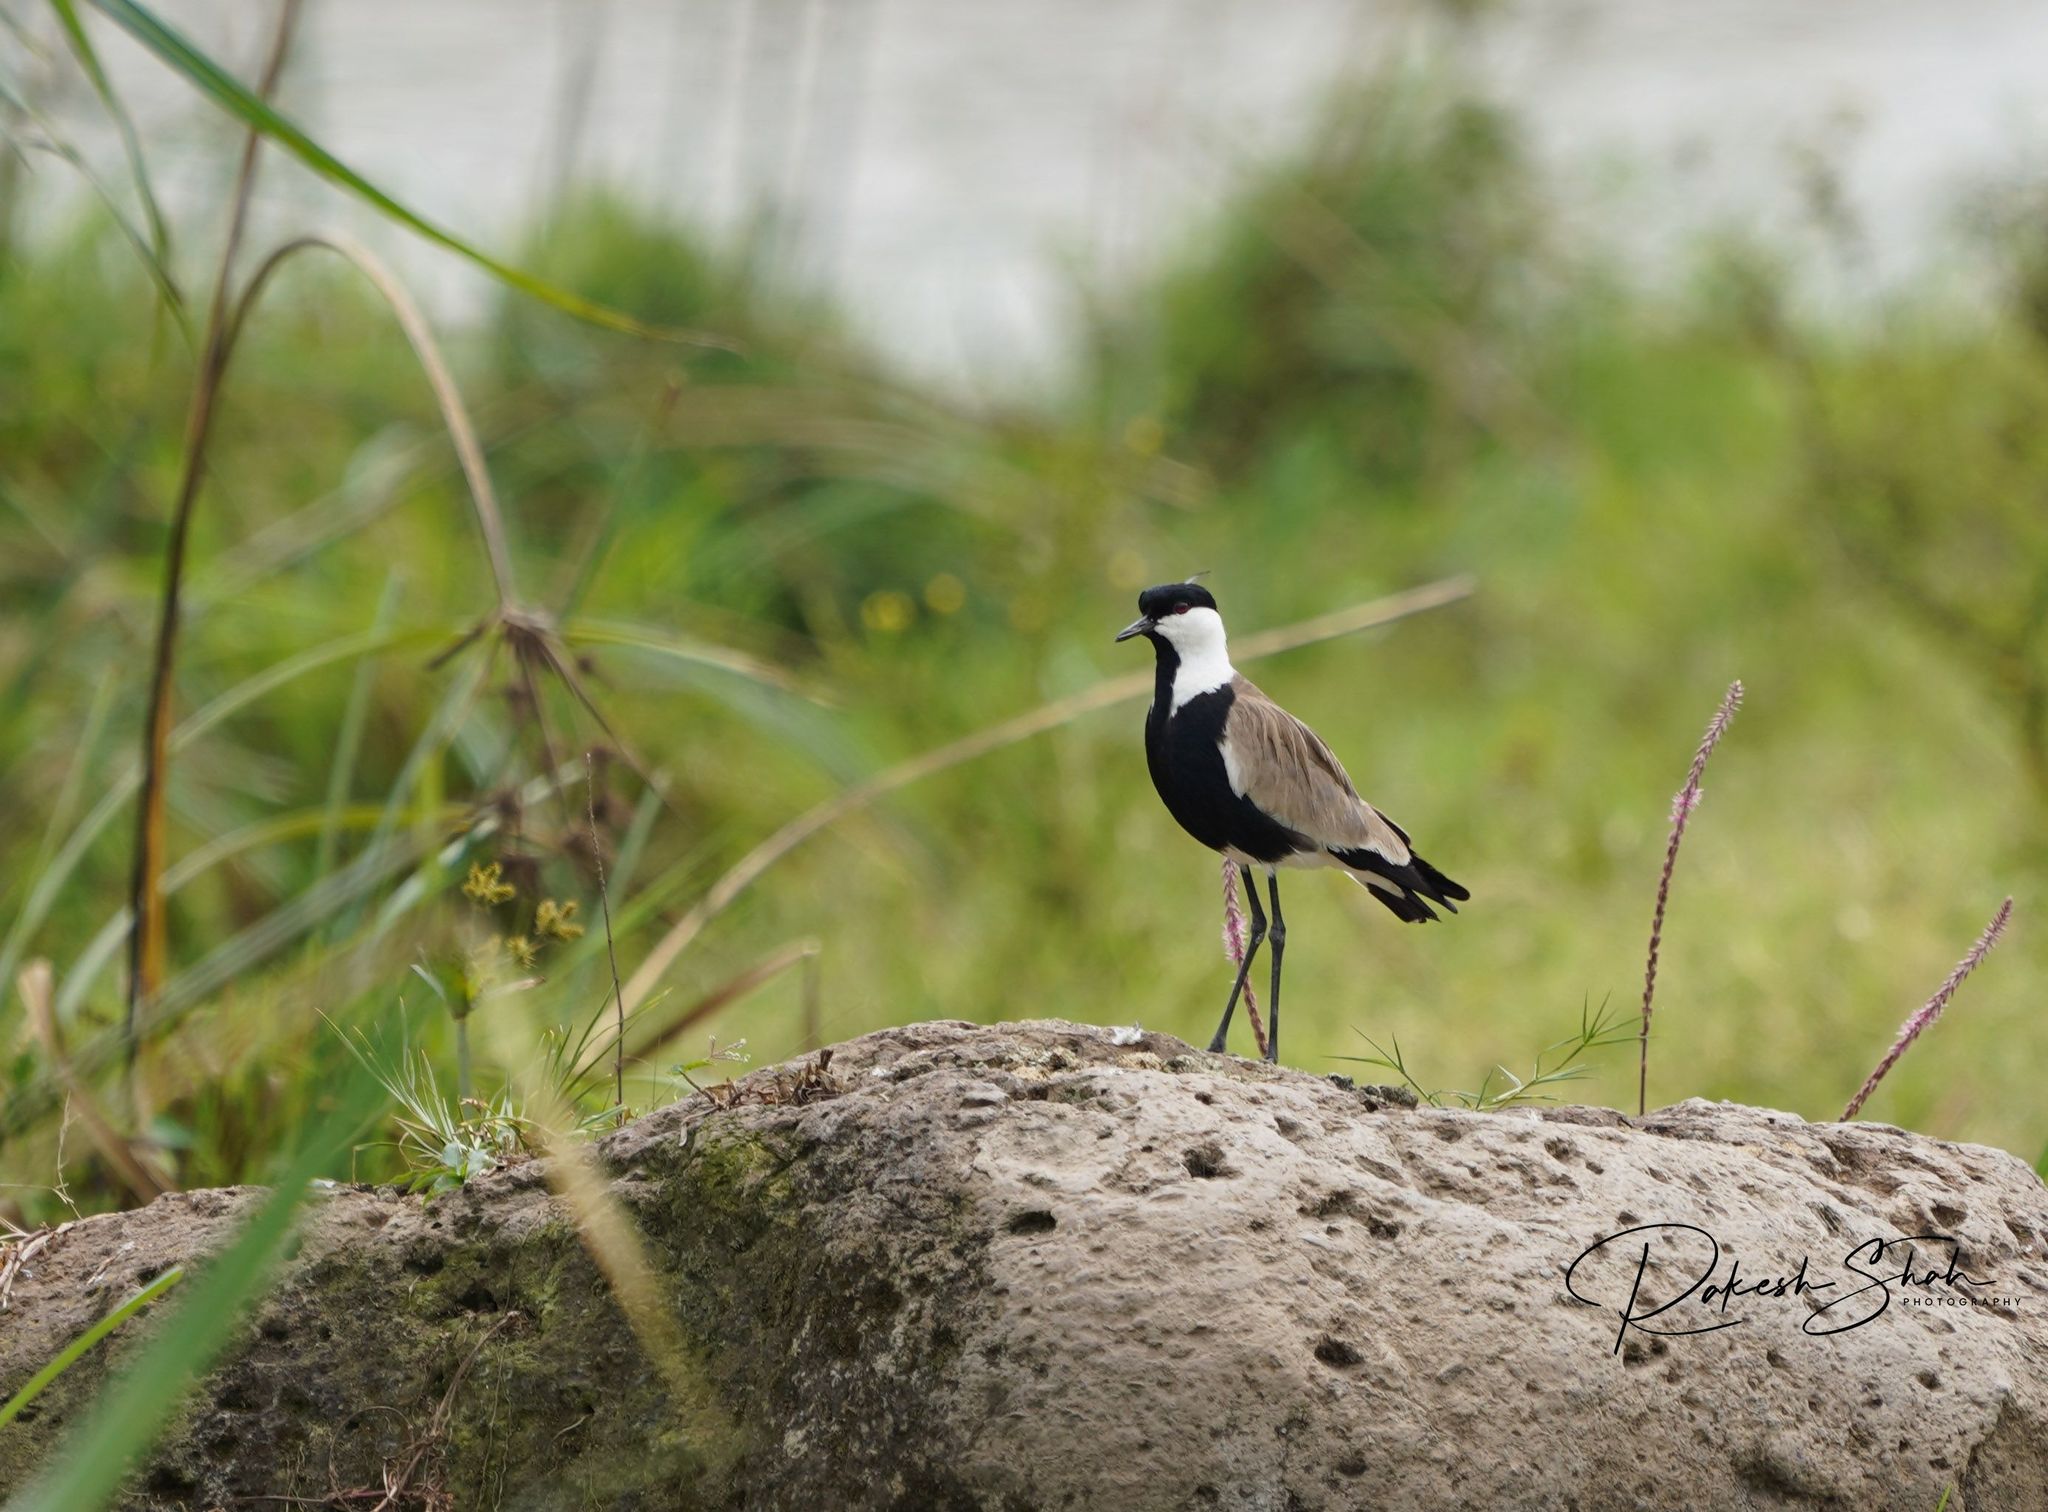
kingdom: Animalia
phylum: Chordata
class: Aves
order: Charadriiformes
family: Charadriidae
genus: Vanellus
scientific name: Vanellus spinosus
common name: Spur-winged lapwing
